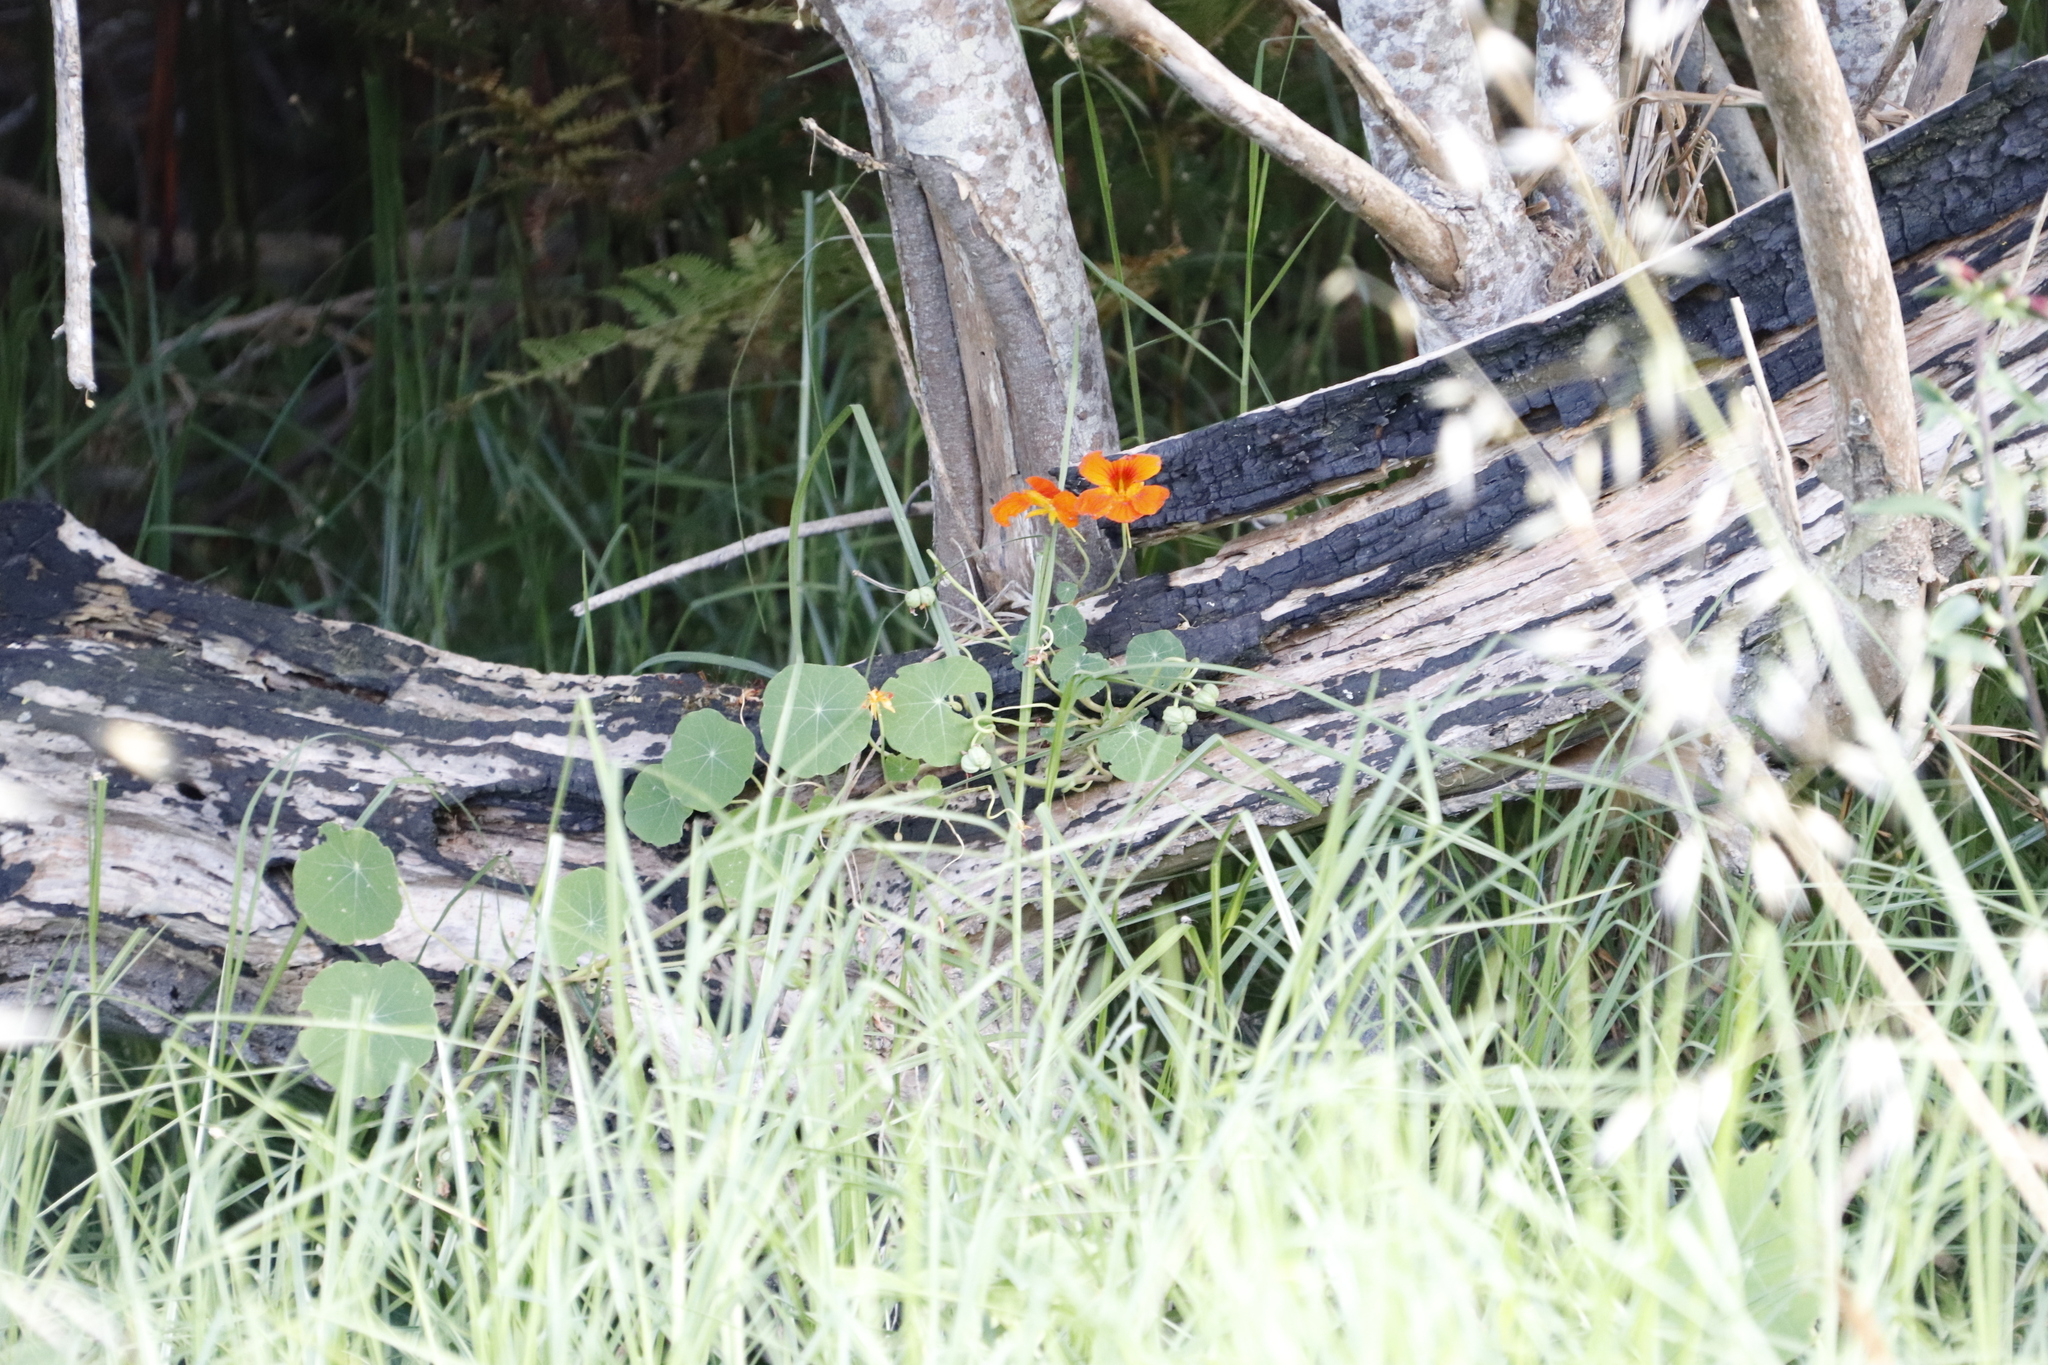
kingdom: Plantae
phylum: Tracheophyta
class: Magnoliopsida
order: Brassicales
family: Tropaeolaceae
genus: Tropaeolum
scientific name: Tropaeolum majus
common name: Nasturtium
